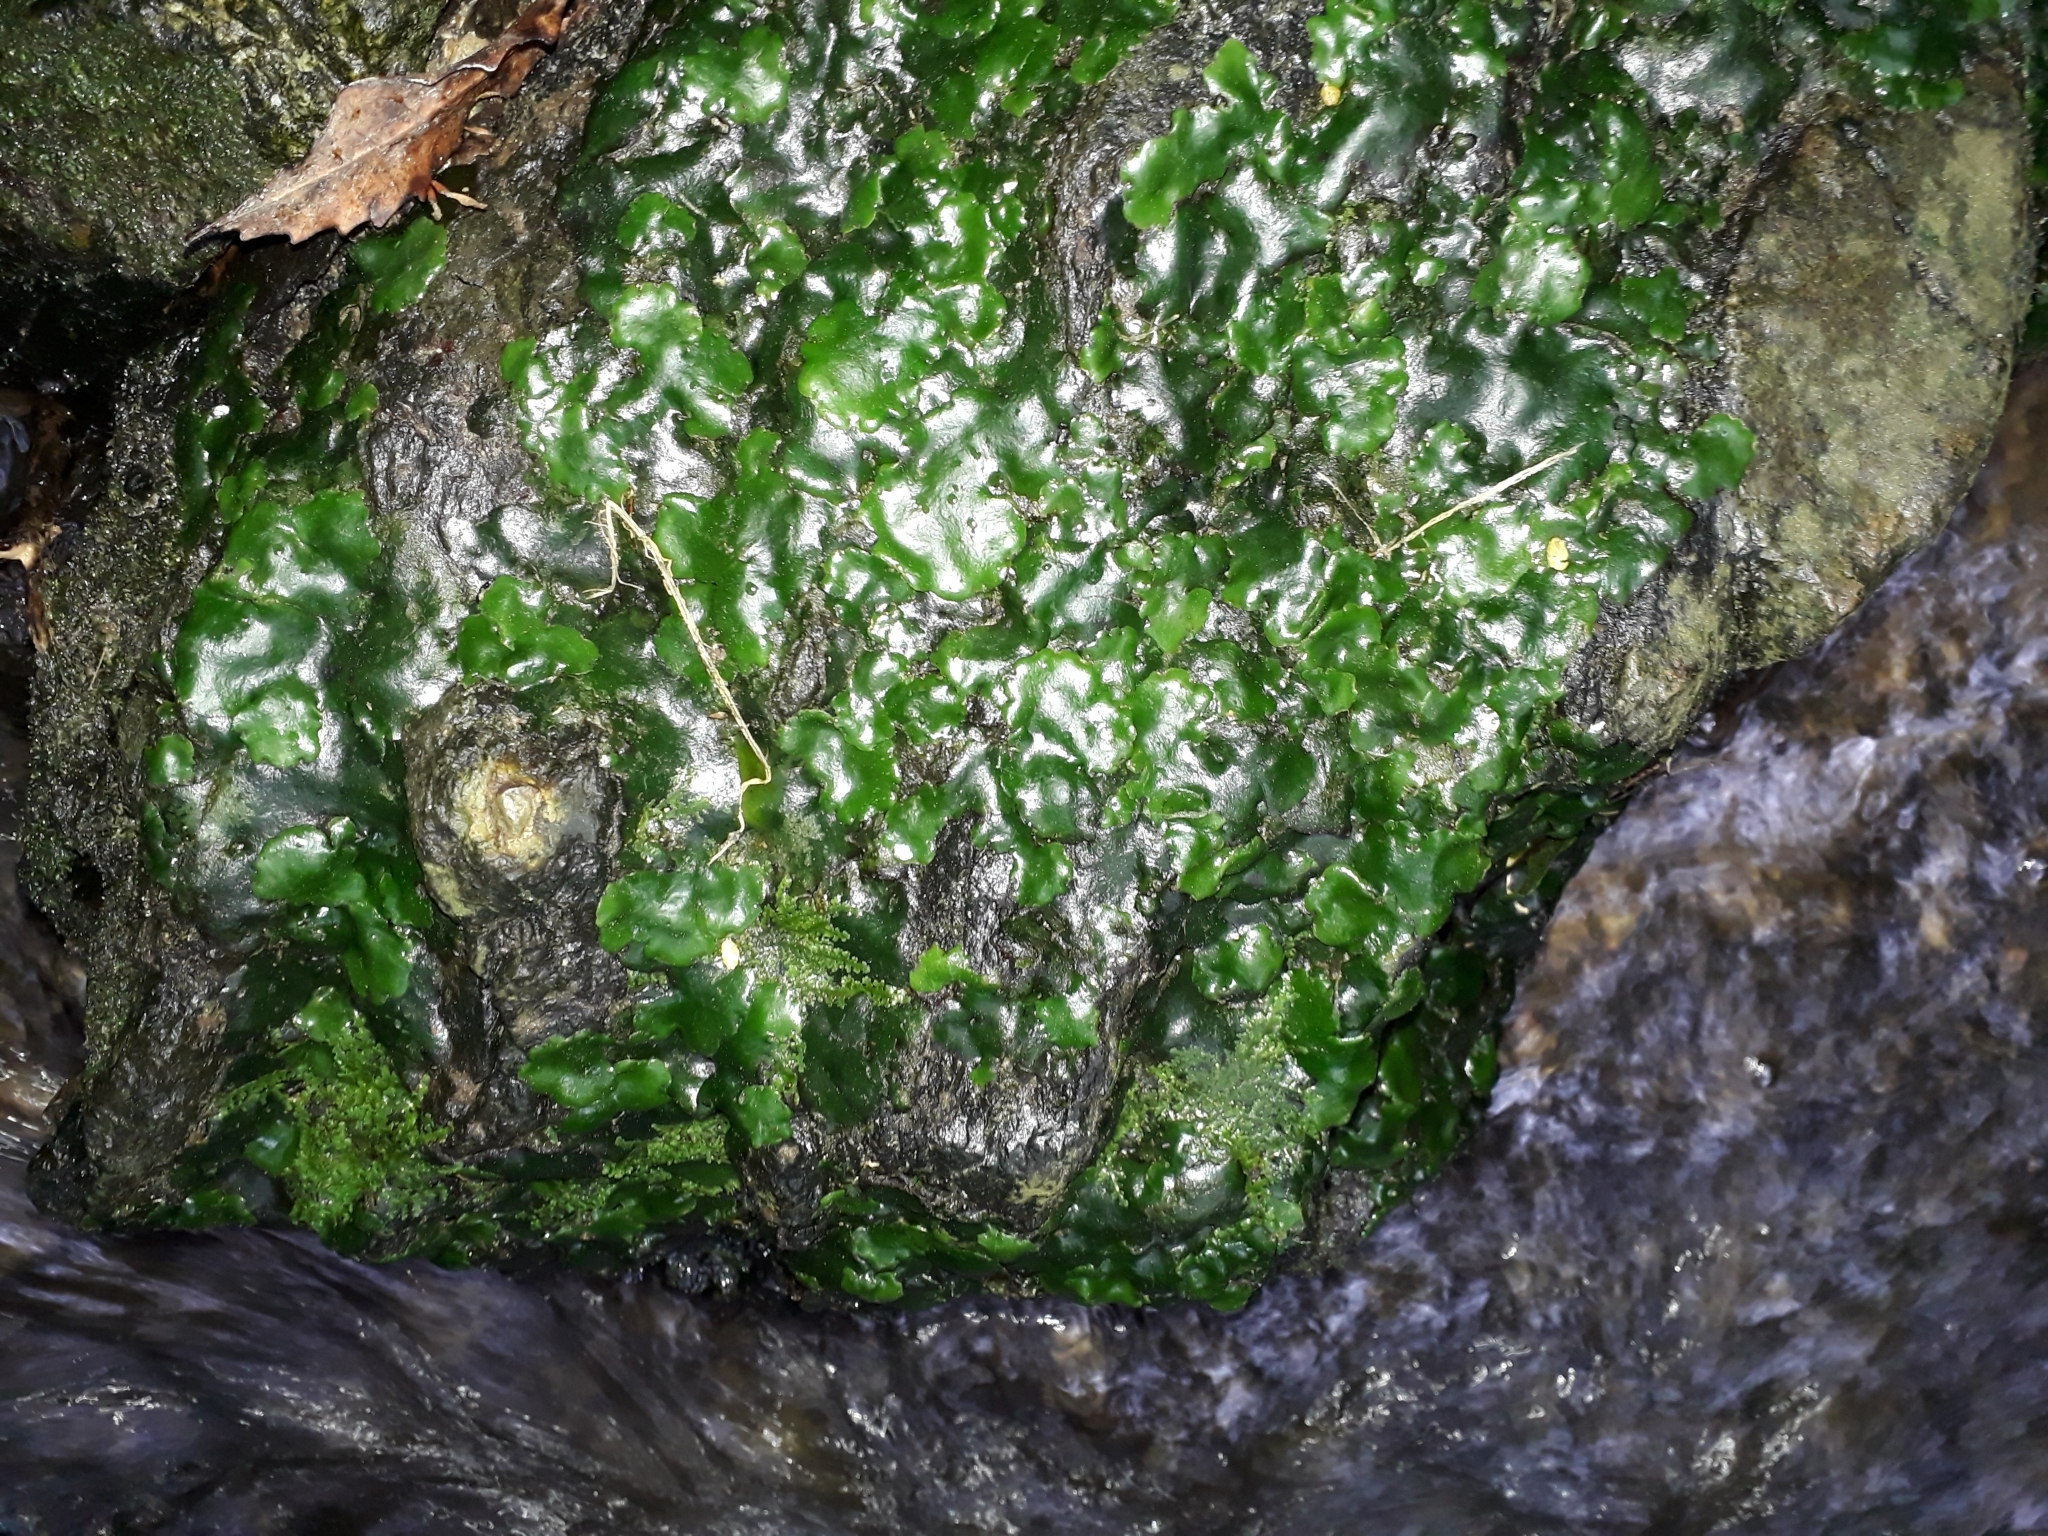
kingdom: Plantae
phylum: Marchantiophyta
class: Marchantiopsida
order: Marchantiales
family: Monocleaceae
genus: Monoclea
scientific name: Monoclea forsteri
